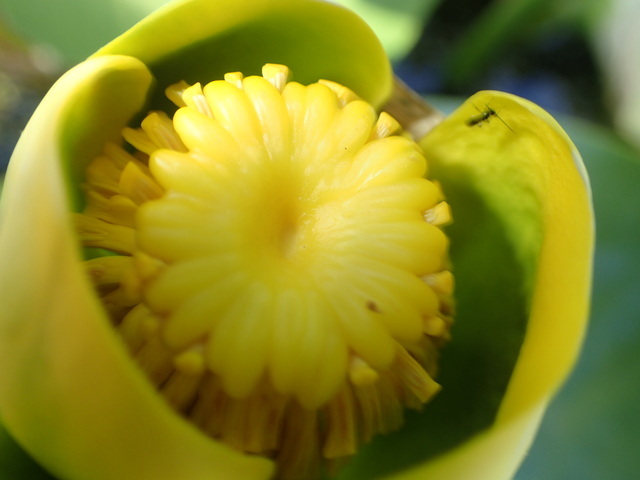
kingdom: Plantae
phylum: Tracheophyta
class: Magnoliopsida
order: Nymphaeales
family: Nymphaeaceae
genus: Nuphar
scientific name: Nuphar advena
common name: Spatter-dock
